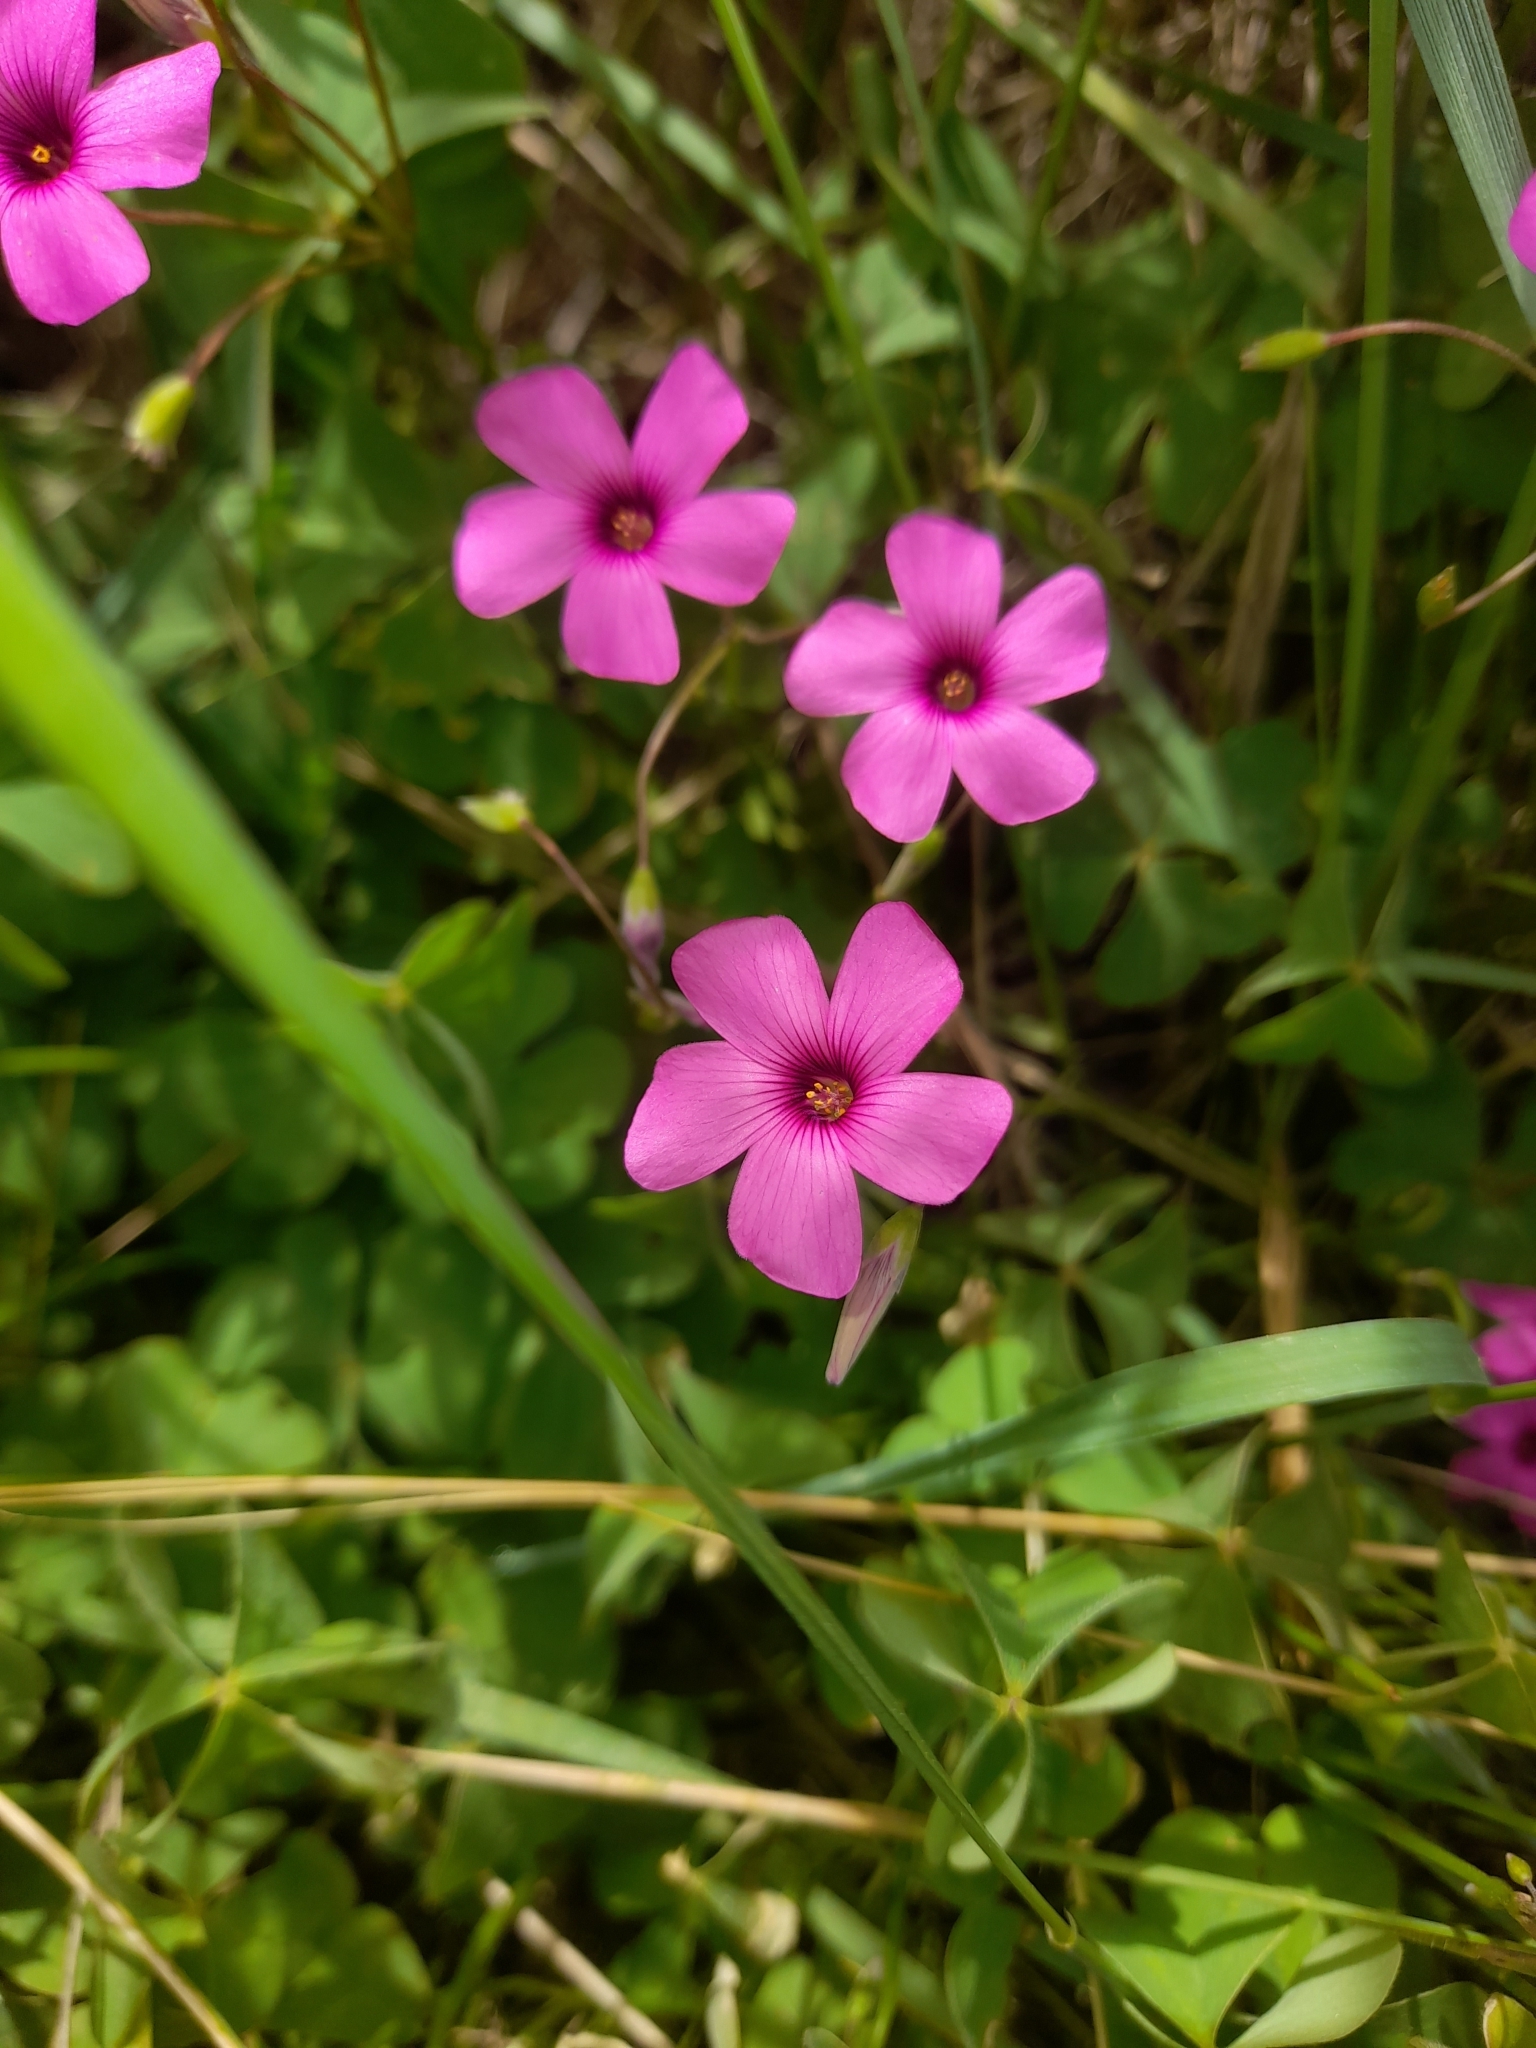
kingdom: Plantae
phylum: Tracheophyta
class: Magnoliopsida
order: Oxalidales
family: Oxalidaceae
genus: Oxalis
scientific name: Oxalis articulata
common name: Pink-sorrel
